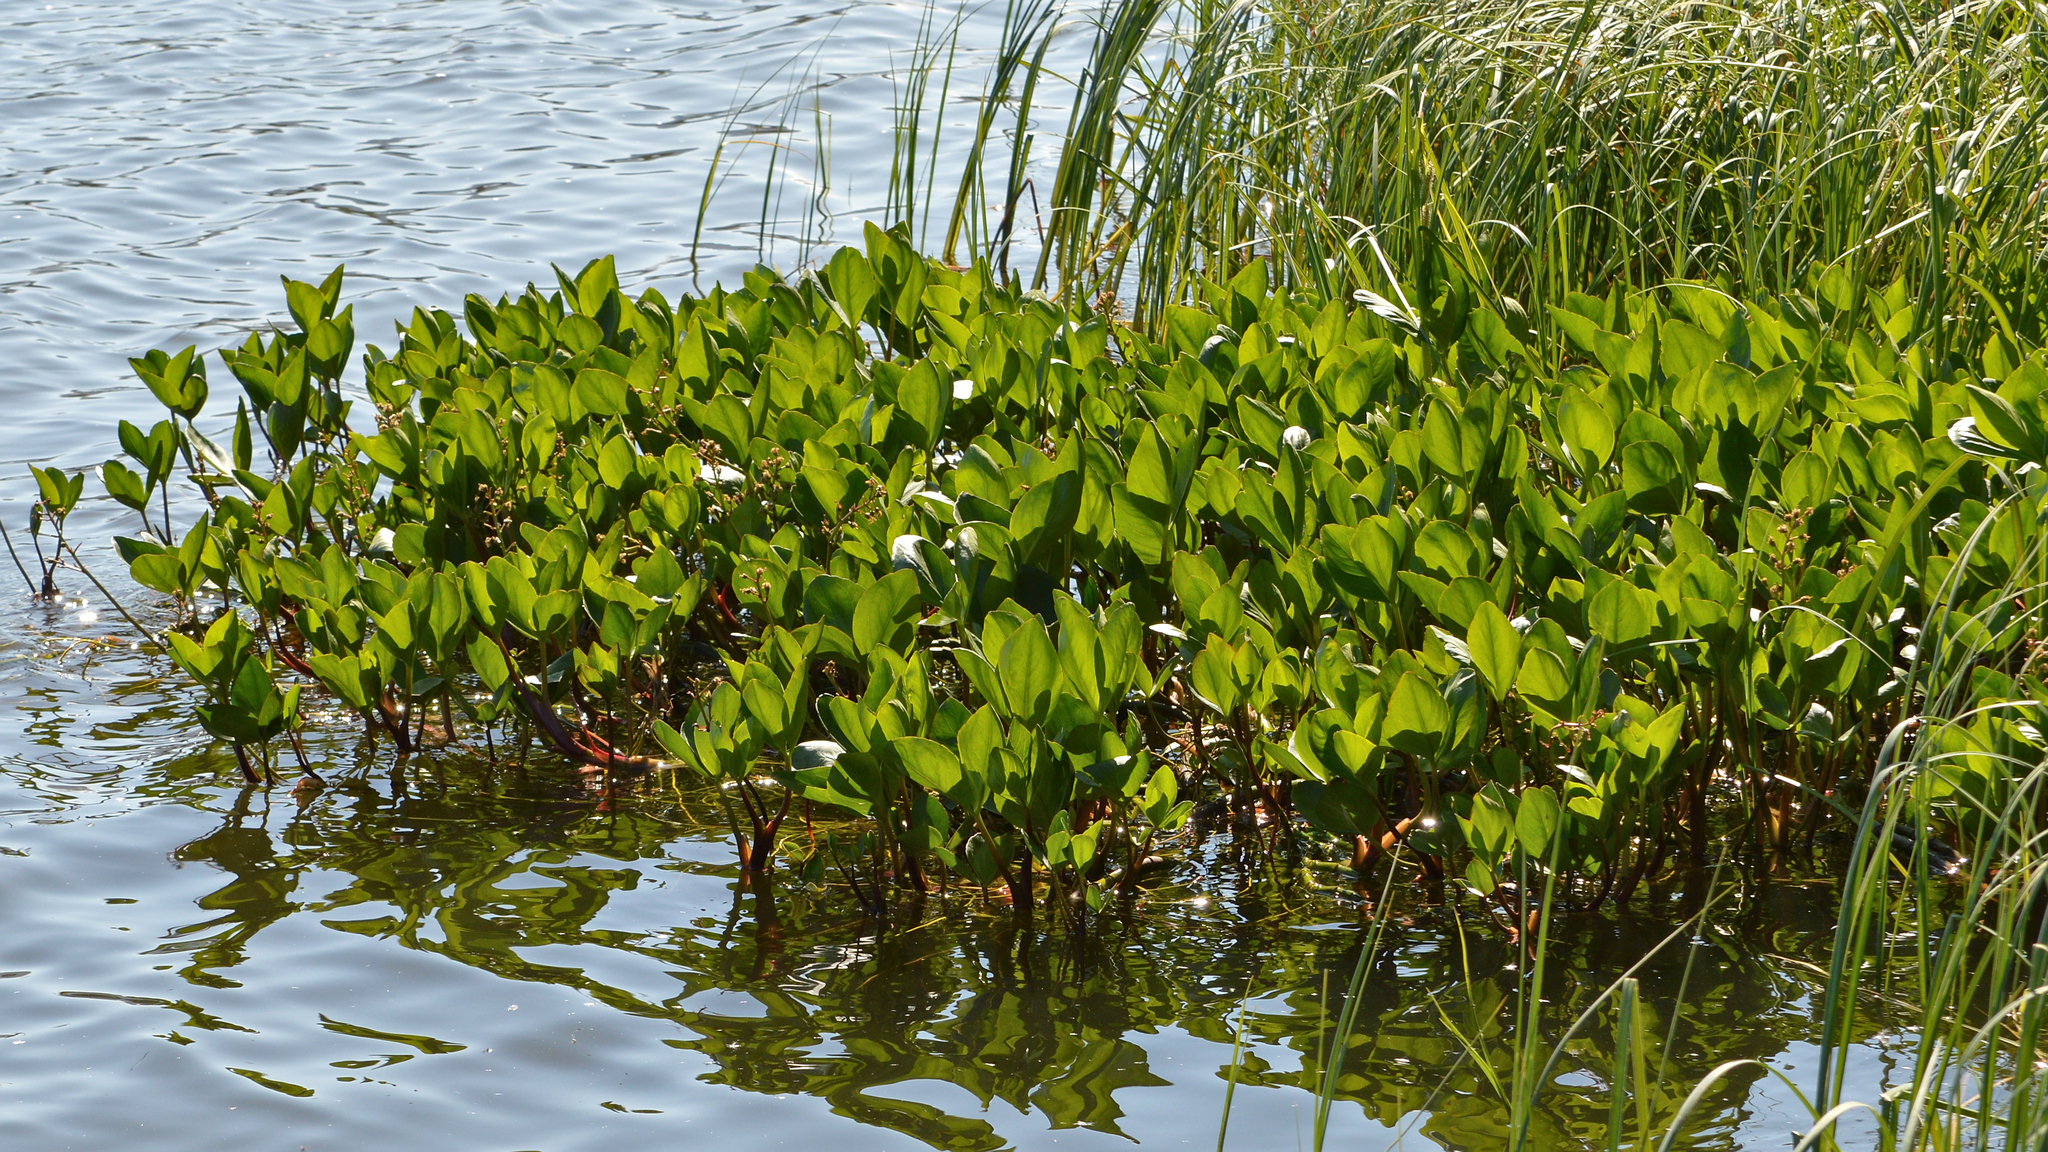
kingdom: Plantae
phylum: Tracheophyta
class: Magnoliopsida
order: Asterales
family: Menyanthaceae
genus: Menyanthes
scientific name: Menyanthes trifoliata
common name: Bogbean
